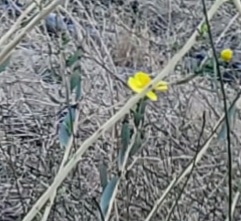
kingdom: Plantae
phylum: Tracheophyta
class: Magnoliopsida
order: Ranunculales
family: Papaveraceae
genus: Dendromecon
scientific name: Dendromecon rigida
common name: Tree poppy
